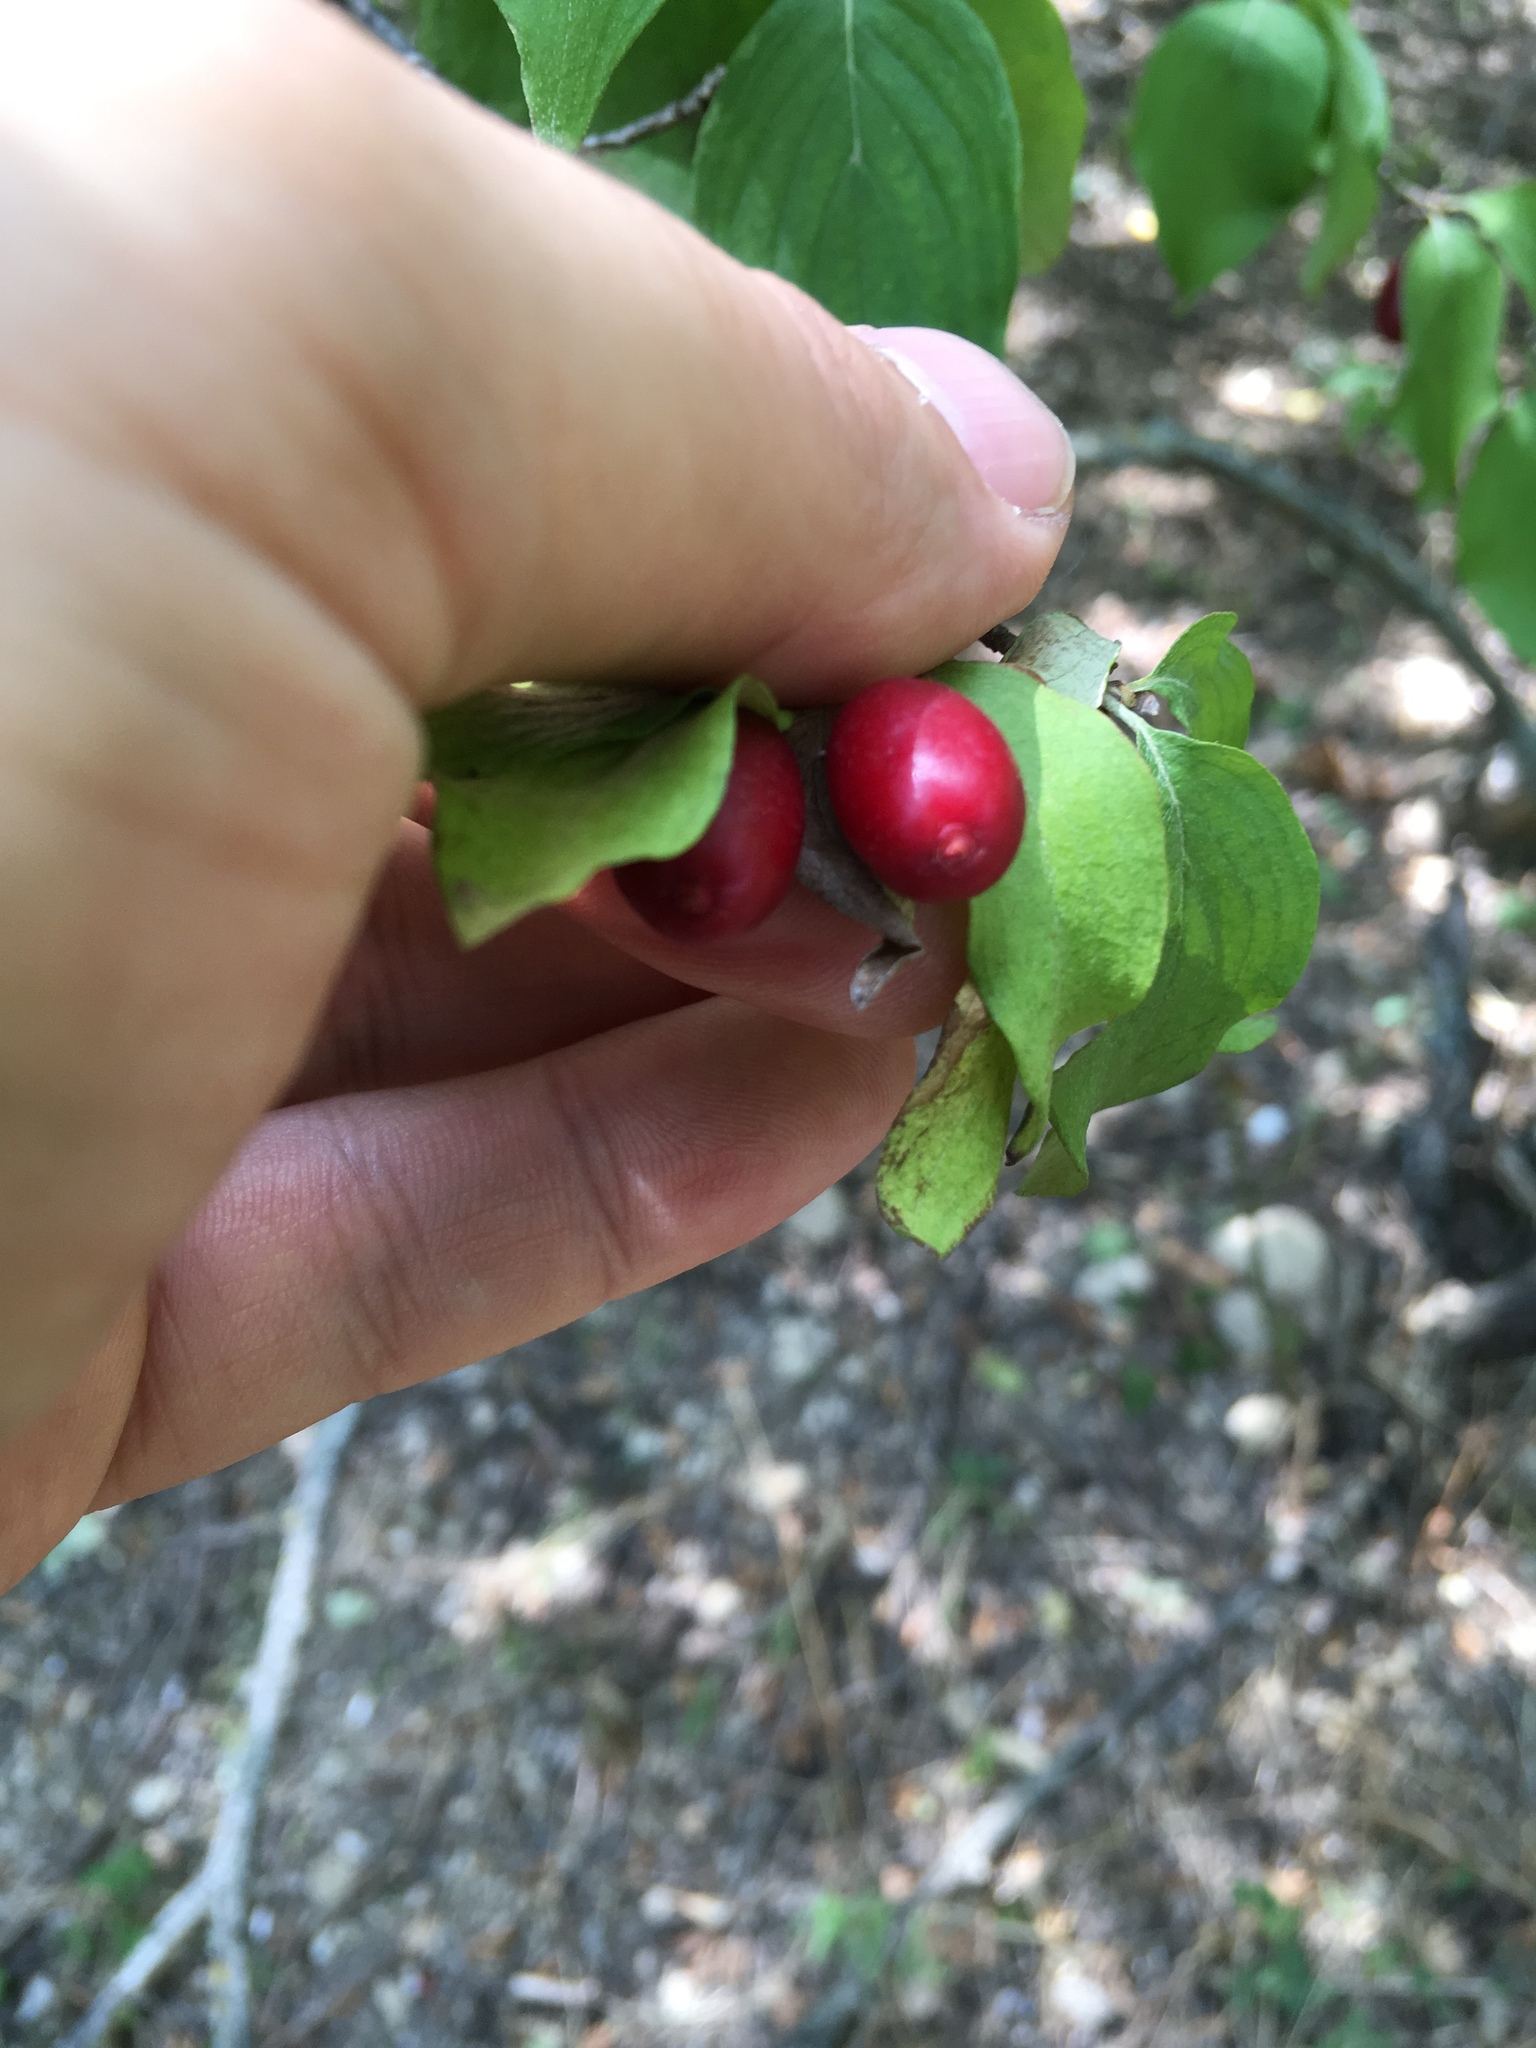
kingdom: Plantae
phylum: Tracheophyta
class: Magnoliopsida
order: Cornales
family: Cornaceae
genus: Cornus
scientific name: Cornus mas
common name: Cornelian-cherry
